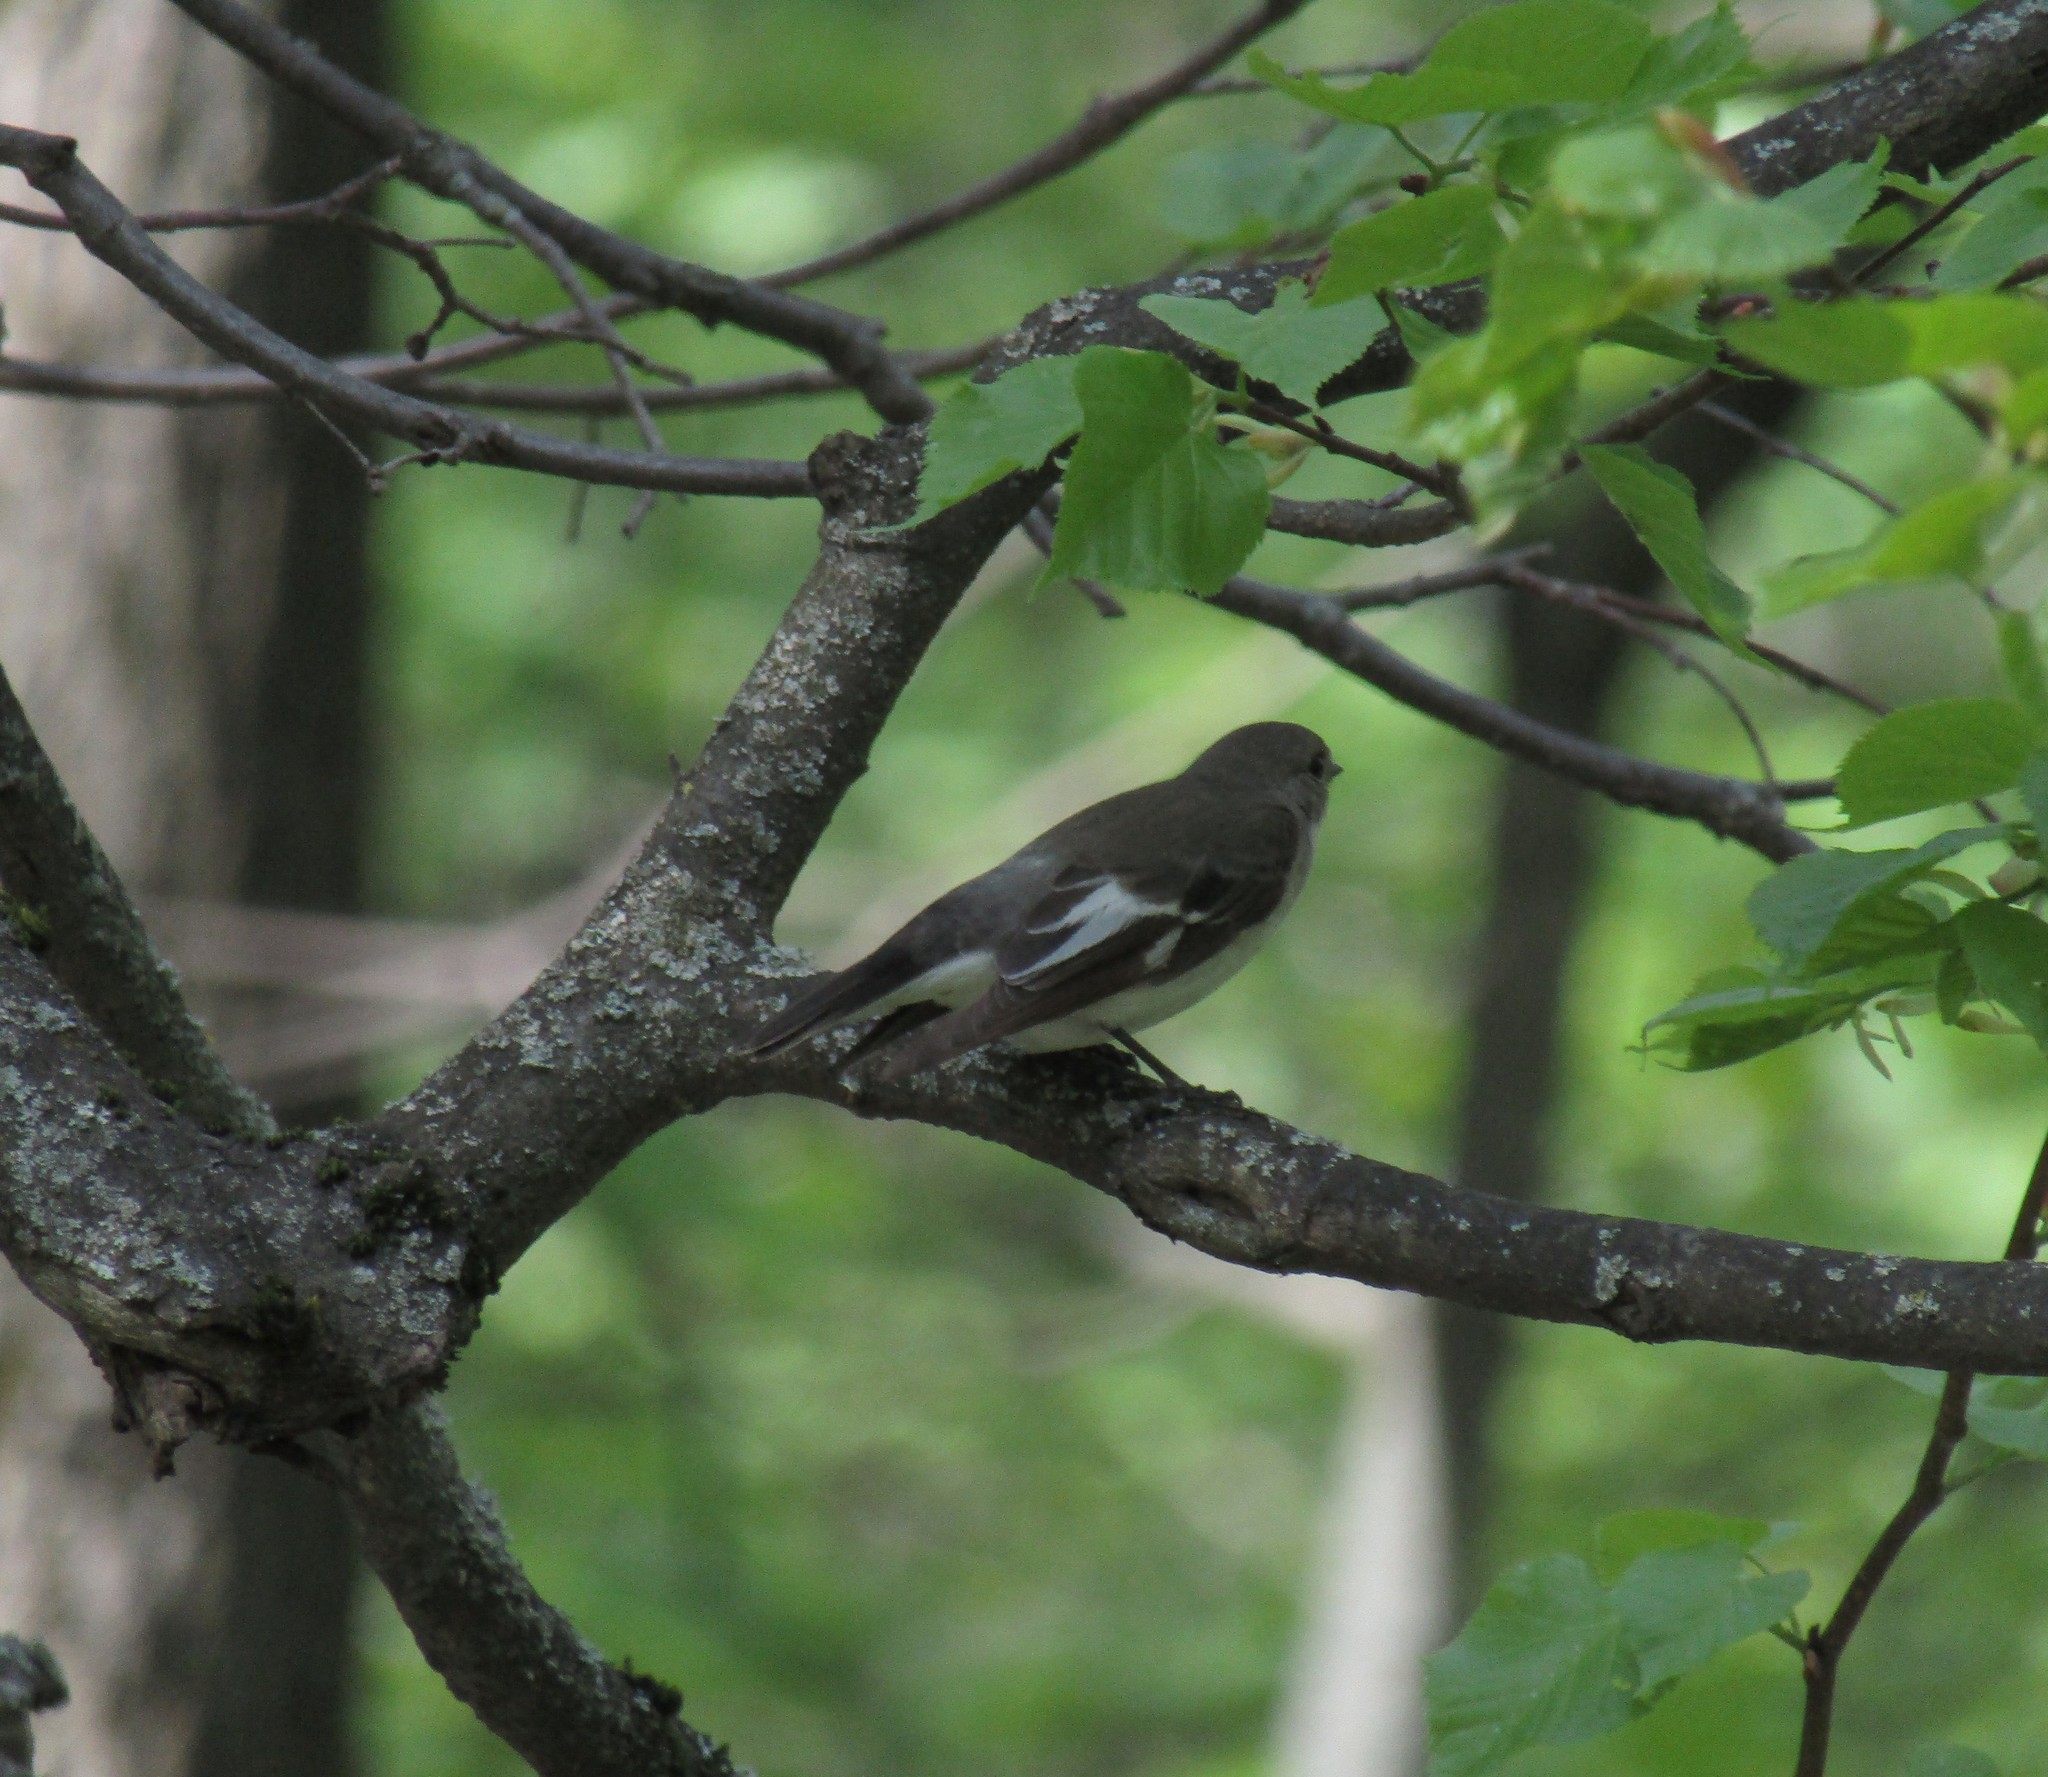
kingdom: Animalia
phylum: Chordata
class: Aves
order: Passeriformes
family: Muscicapidae
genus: Ficedula
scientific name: Ficedula albicollis
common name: Collared flycatcher
